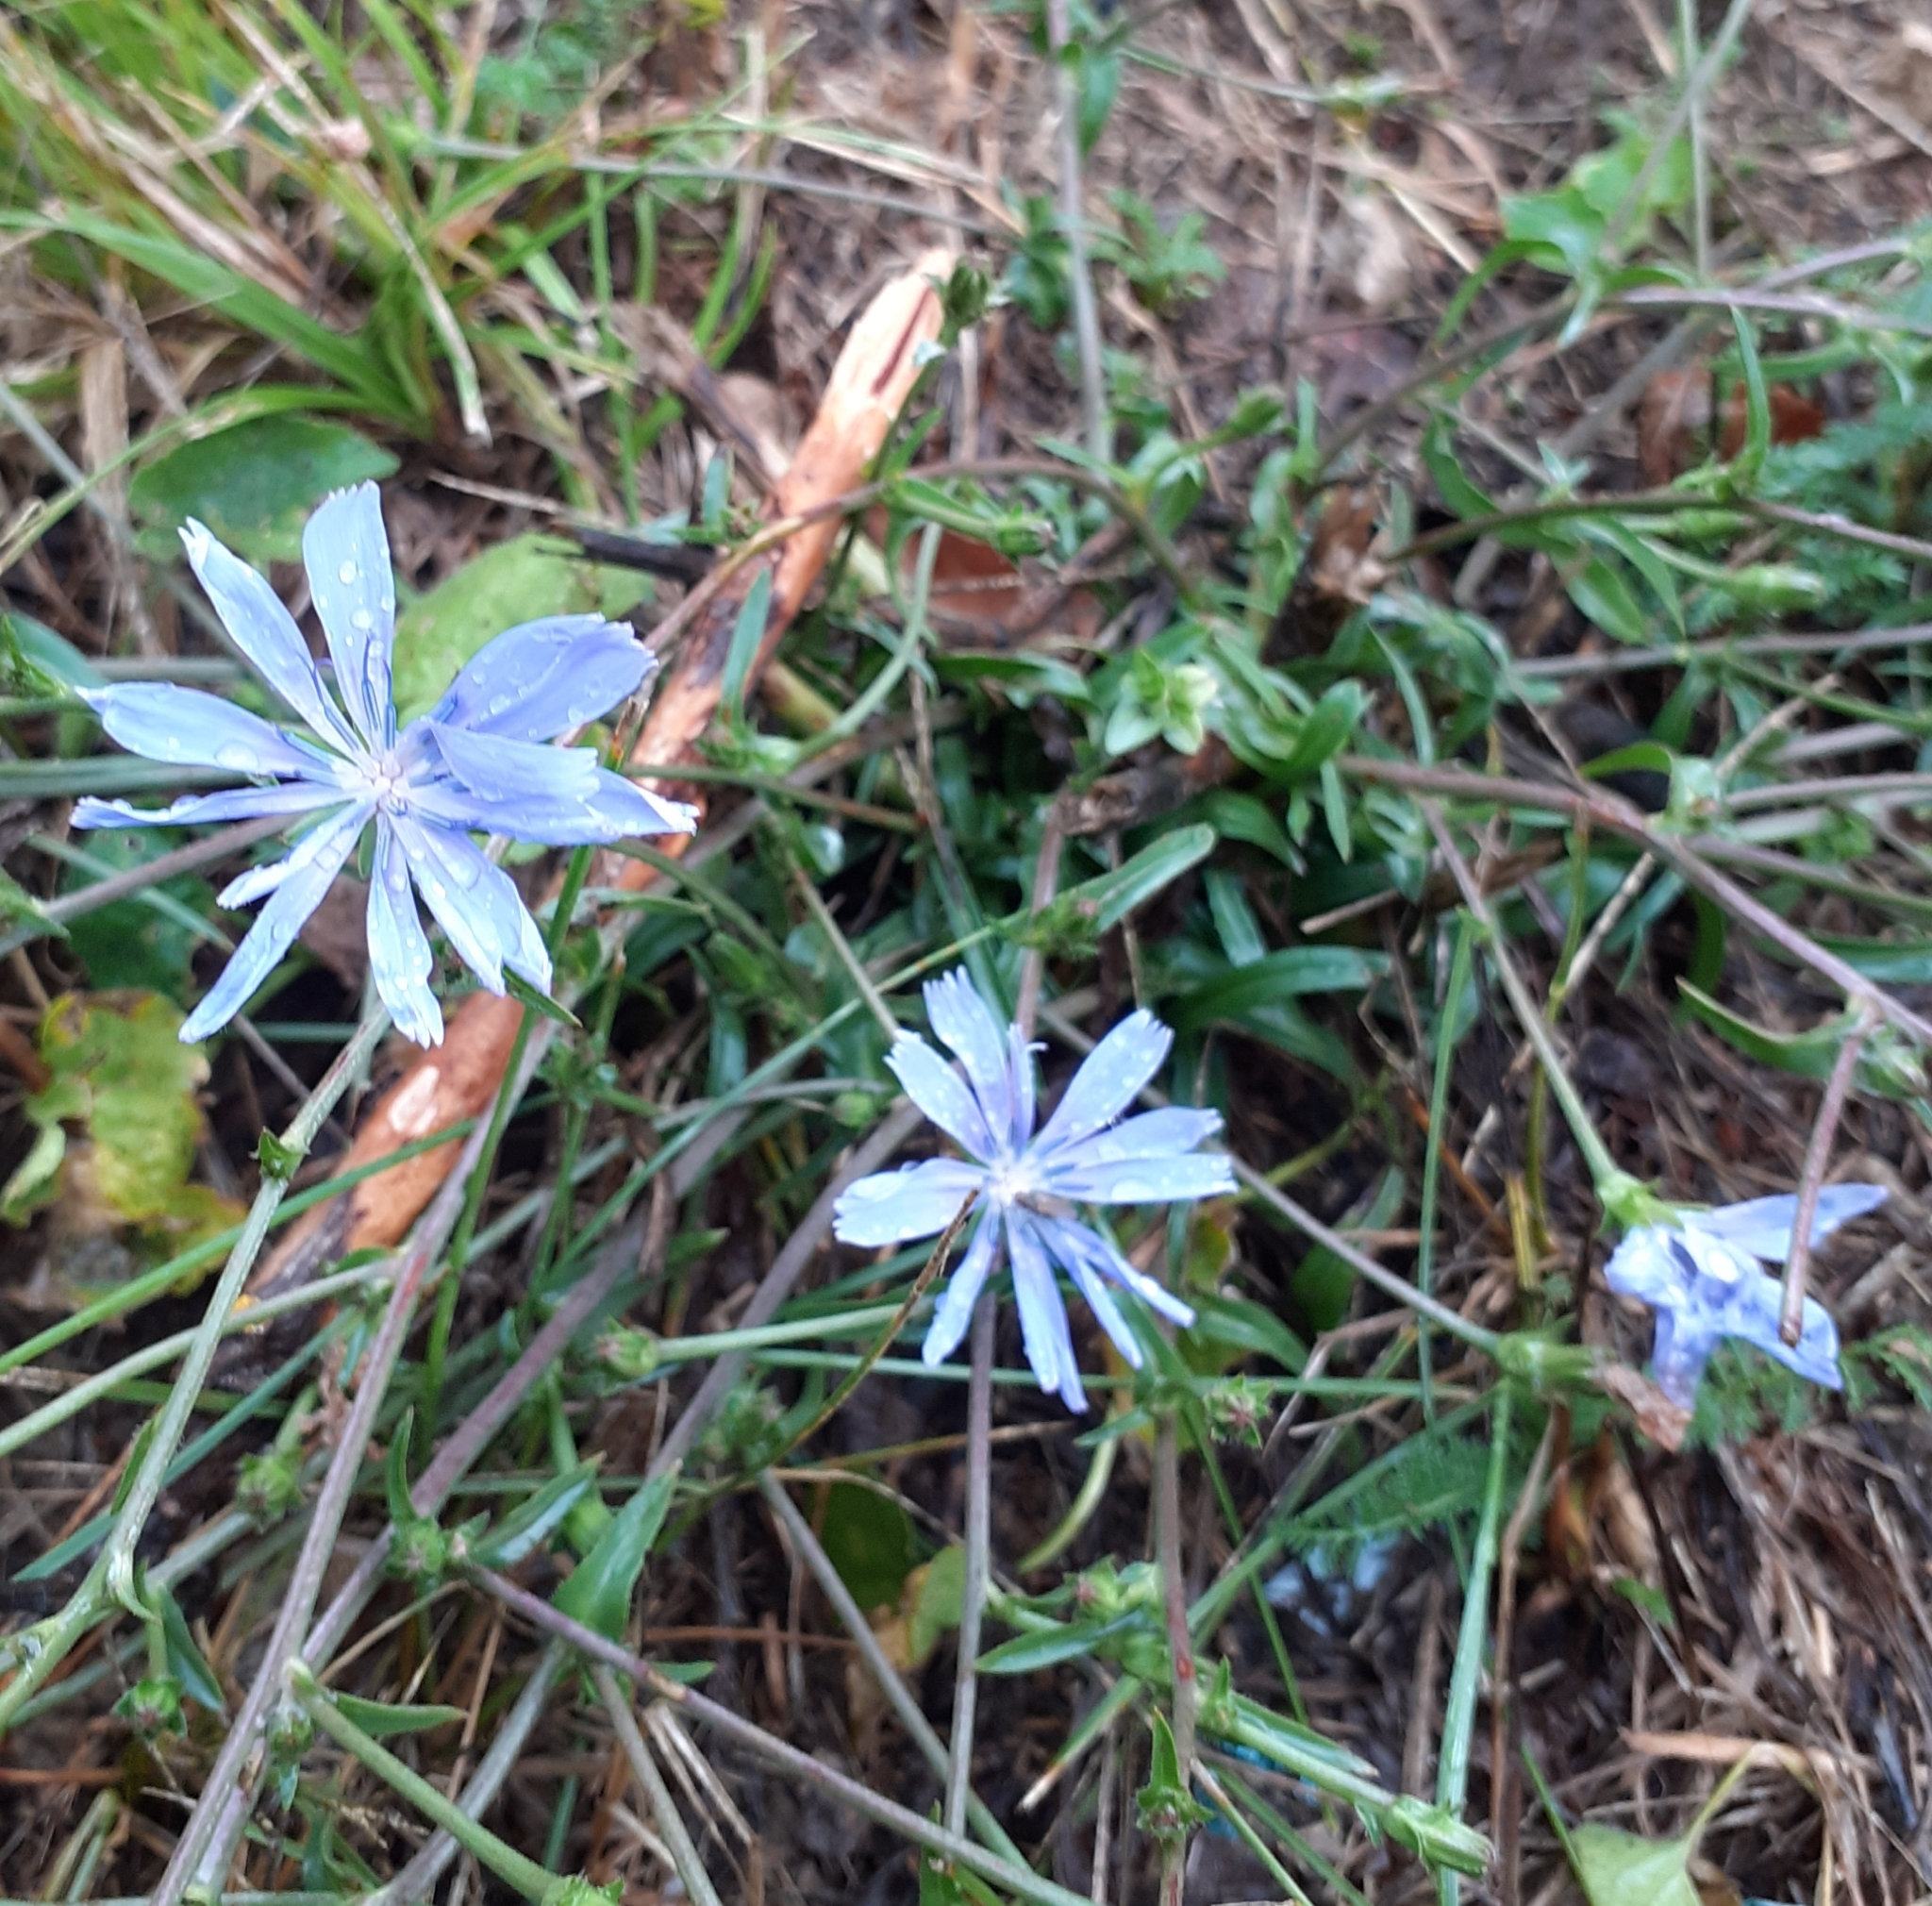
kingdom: Plantae
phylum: Tracheophyta
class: Magnoliopsida
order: Asterales
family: Asteraceae
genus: Cichorium
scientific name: Cichorium intybus
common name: Chicory
